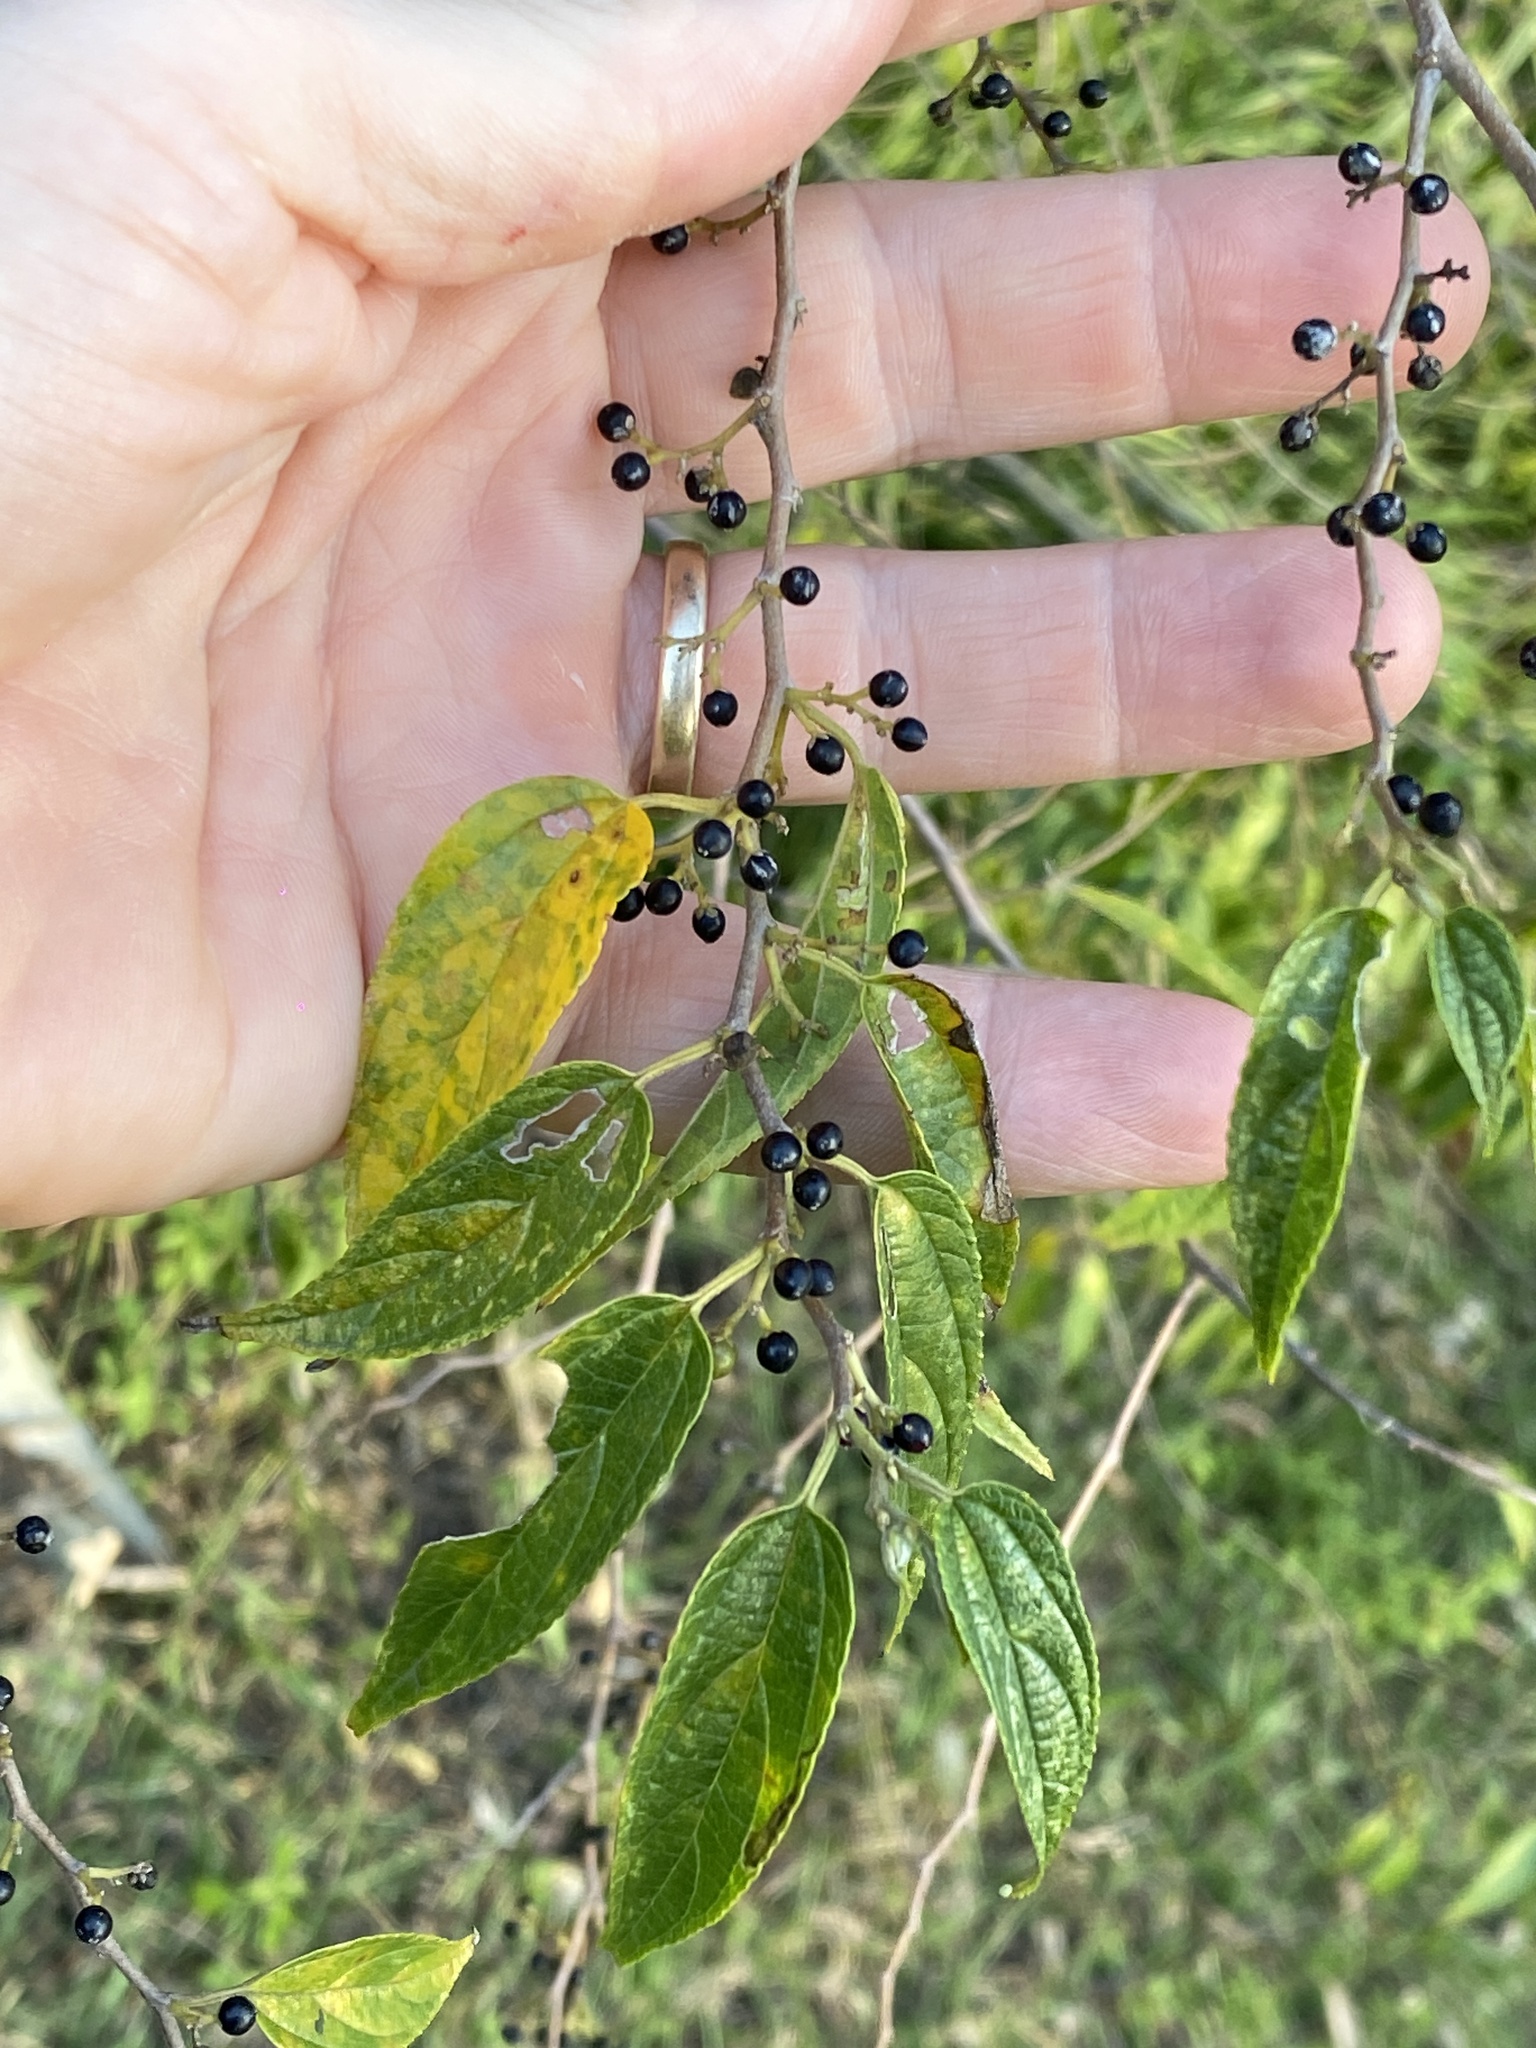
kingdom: Plantae
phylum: Tracheophyta
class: Magnoliopsida
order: Rosales
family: Cannabaceae
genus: Trema
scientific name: Trema tomentosum
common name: Peach-leaf-poisonbush
